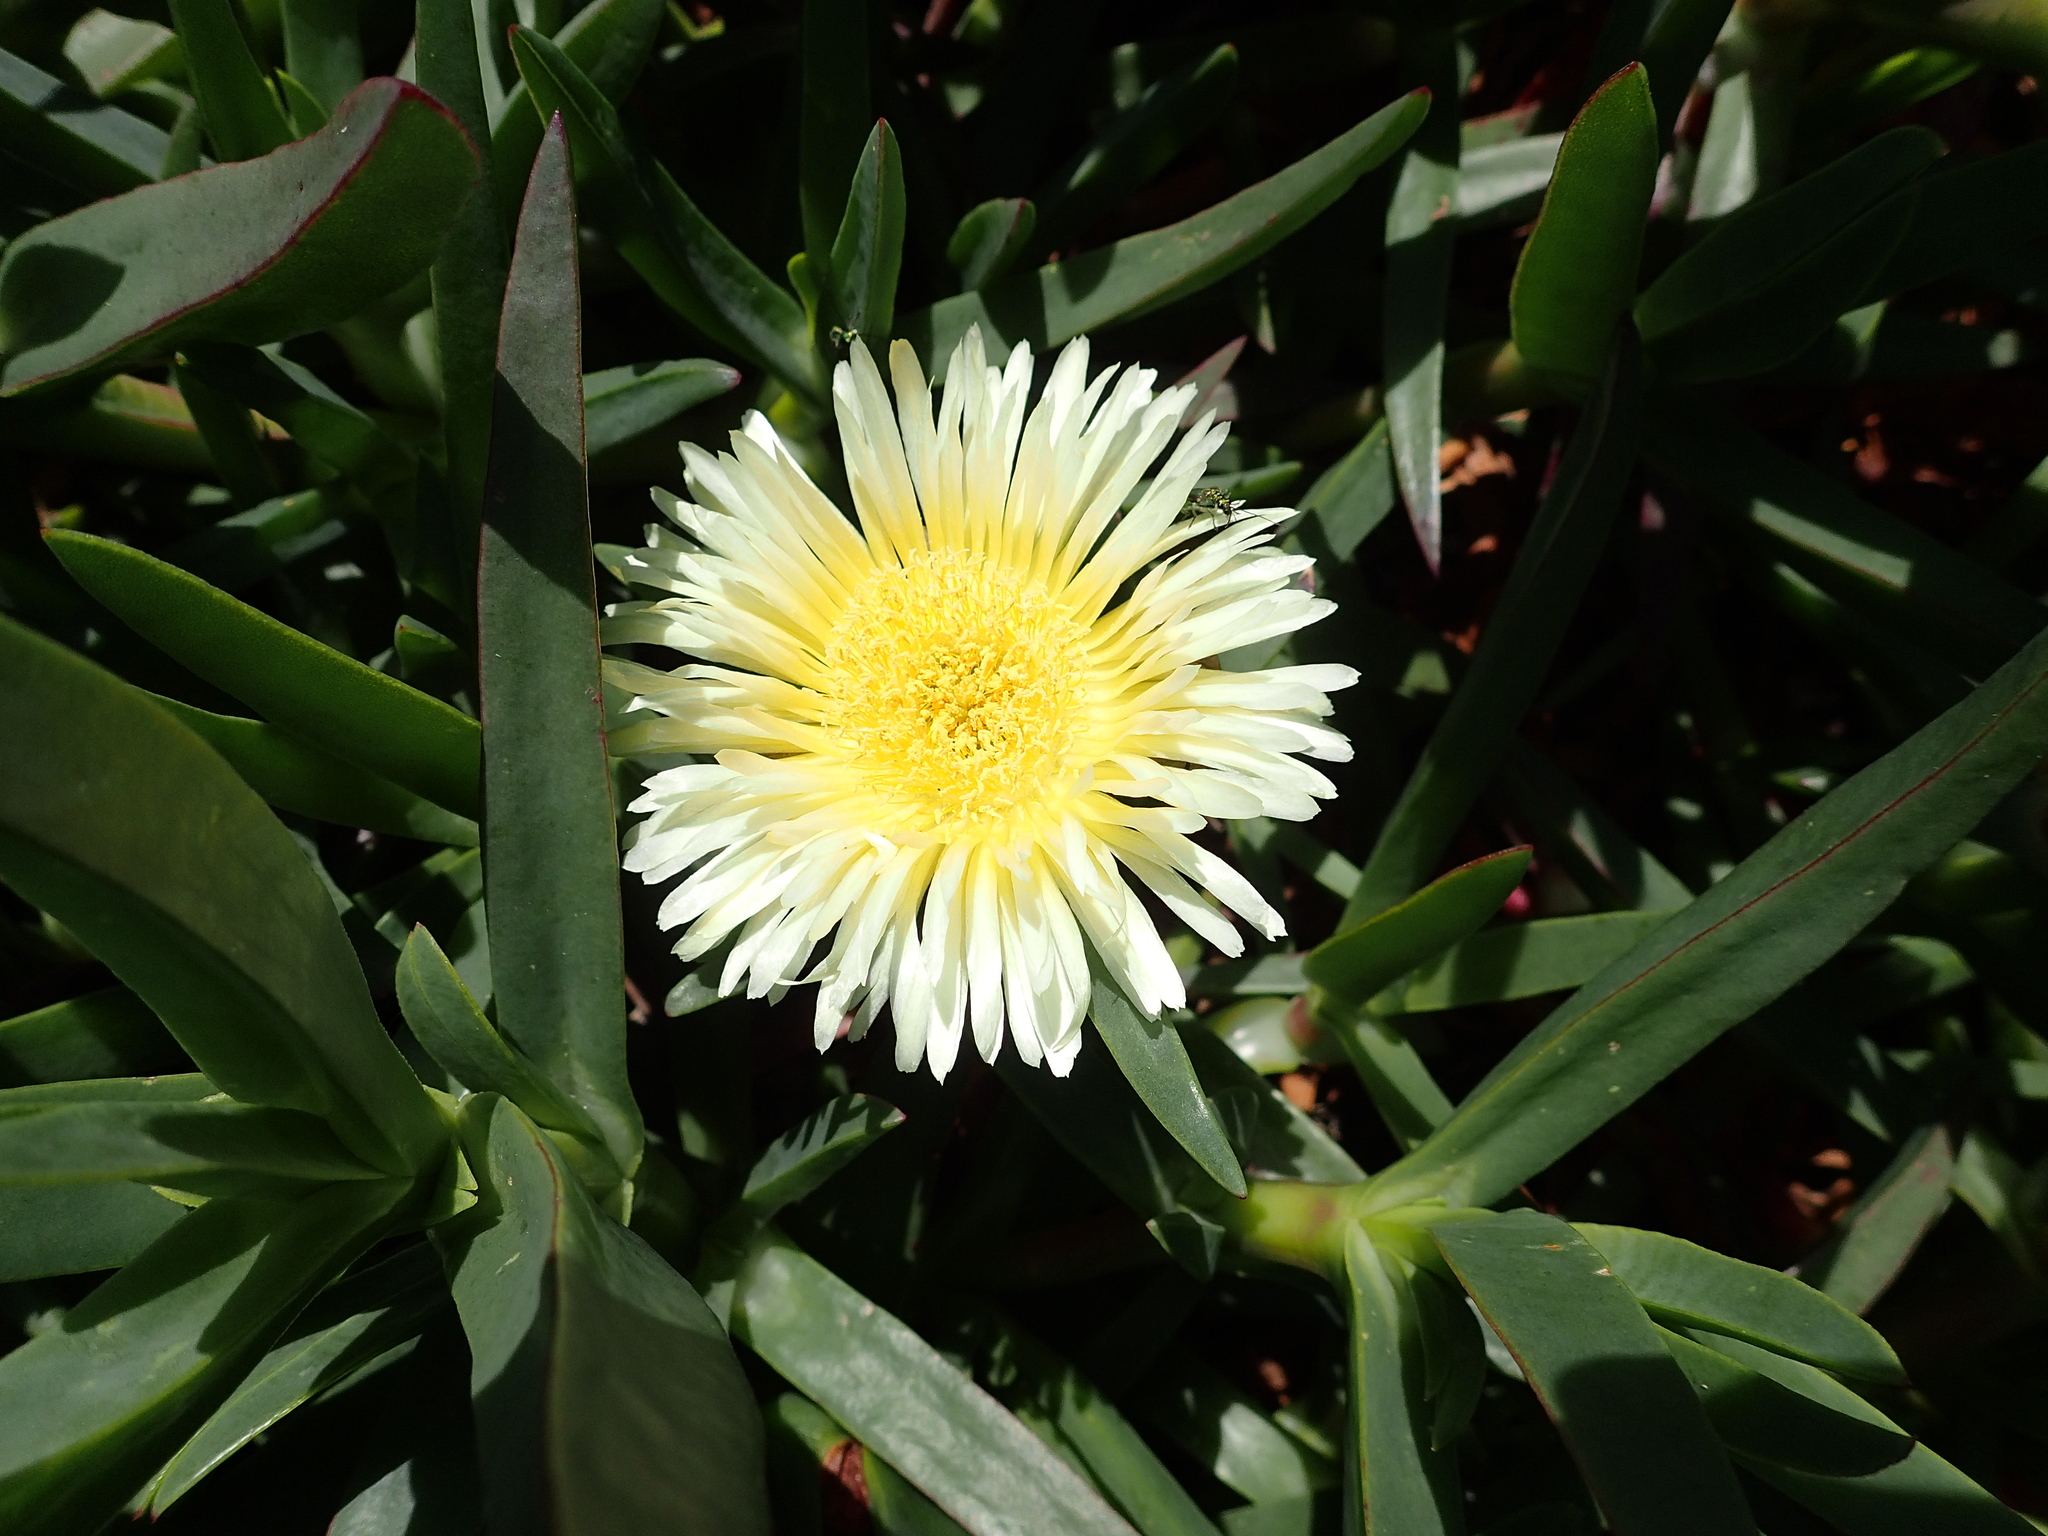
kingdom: Plantae
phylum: Tracheophyta
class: Magnoliopsida
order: Caryophyllales
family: Aizoaceae
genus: Carpobrotus
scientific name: Carpobrotus edulis
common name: Hottentot-fig
